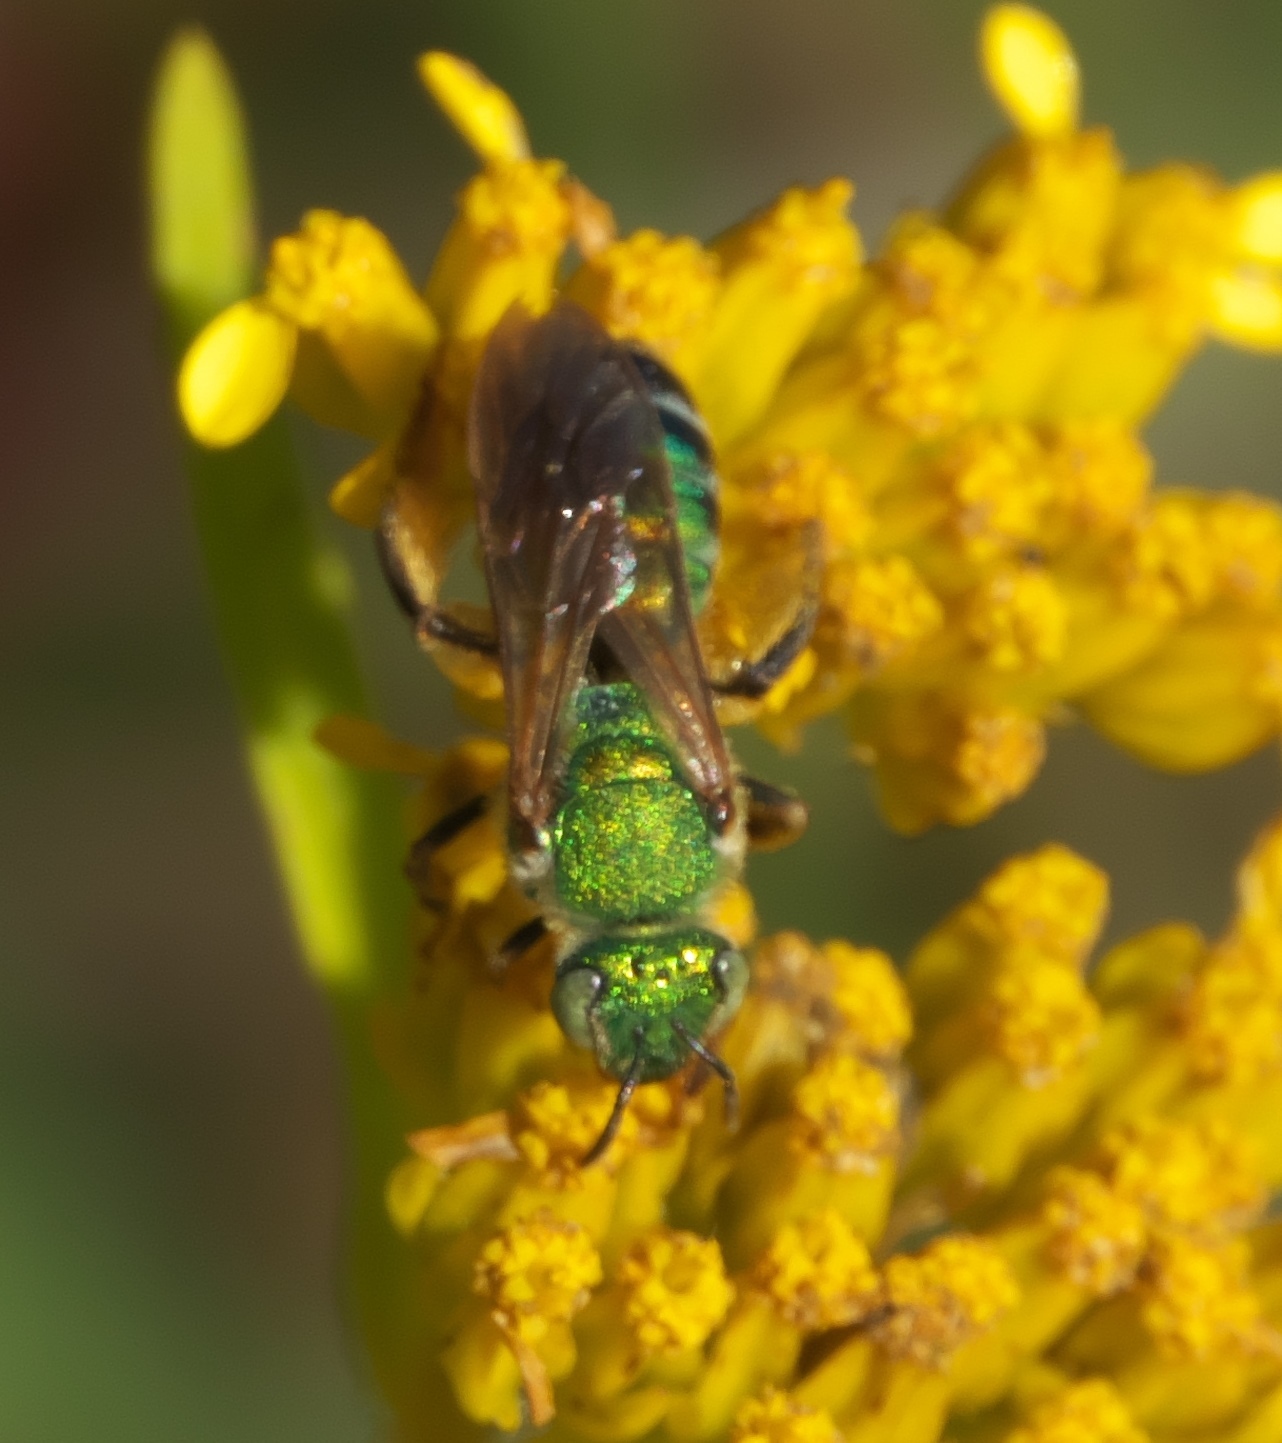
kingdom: Animalia
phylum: Arthropoda
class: Insecta
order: Hymenoptera
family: Halictidae
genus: Agapostemon
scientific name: Agapostemon splendens
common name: Brown-winged striped sweat bee
